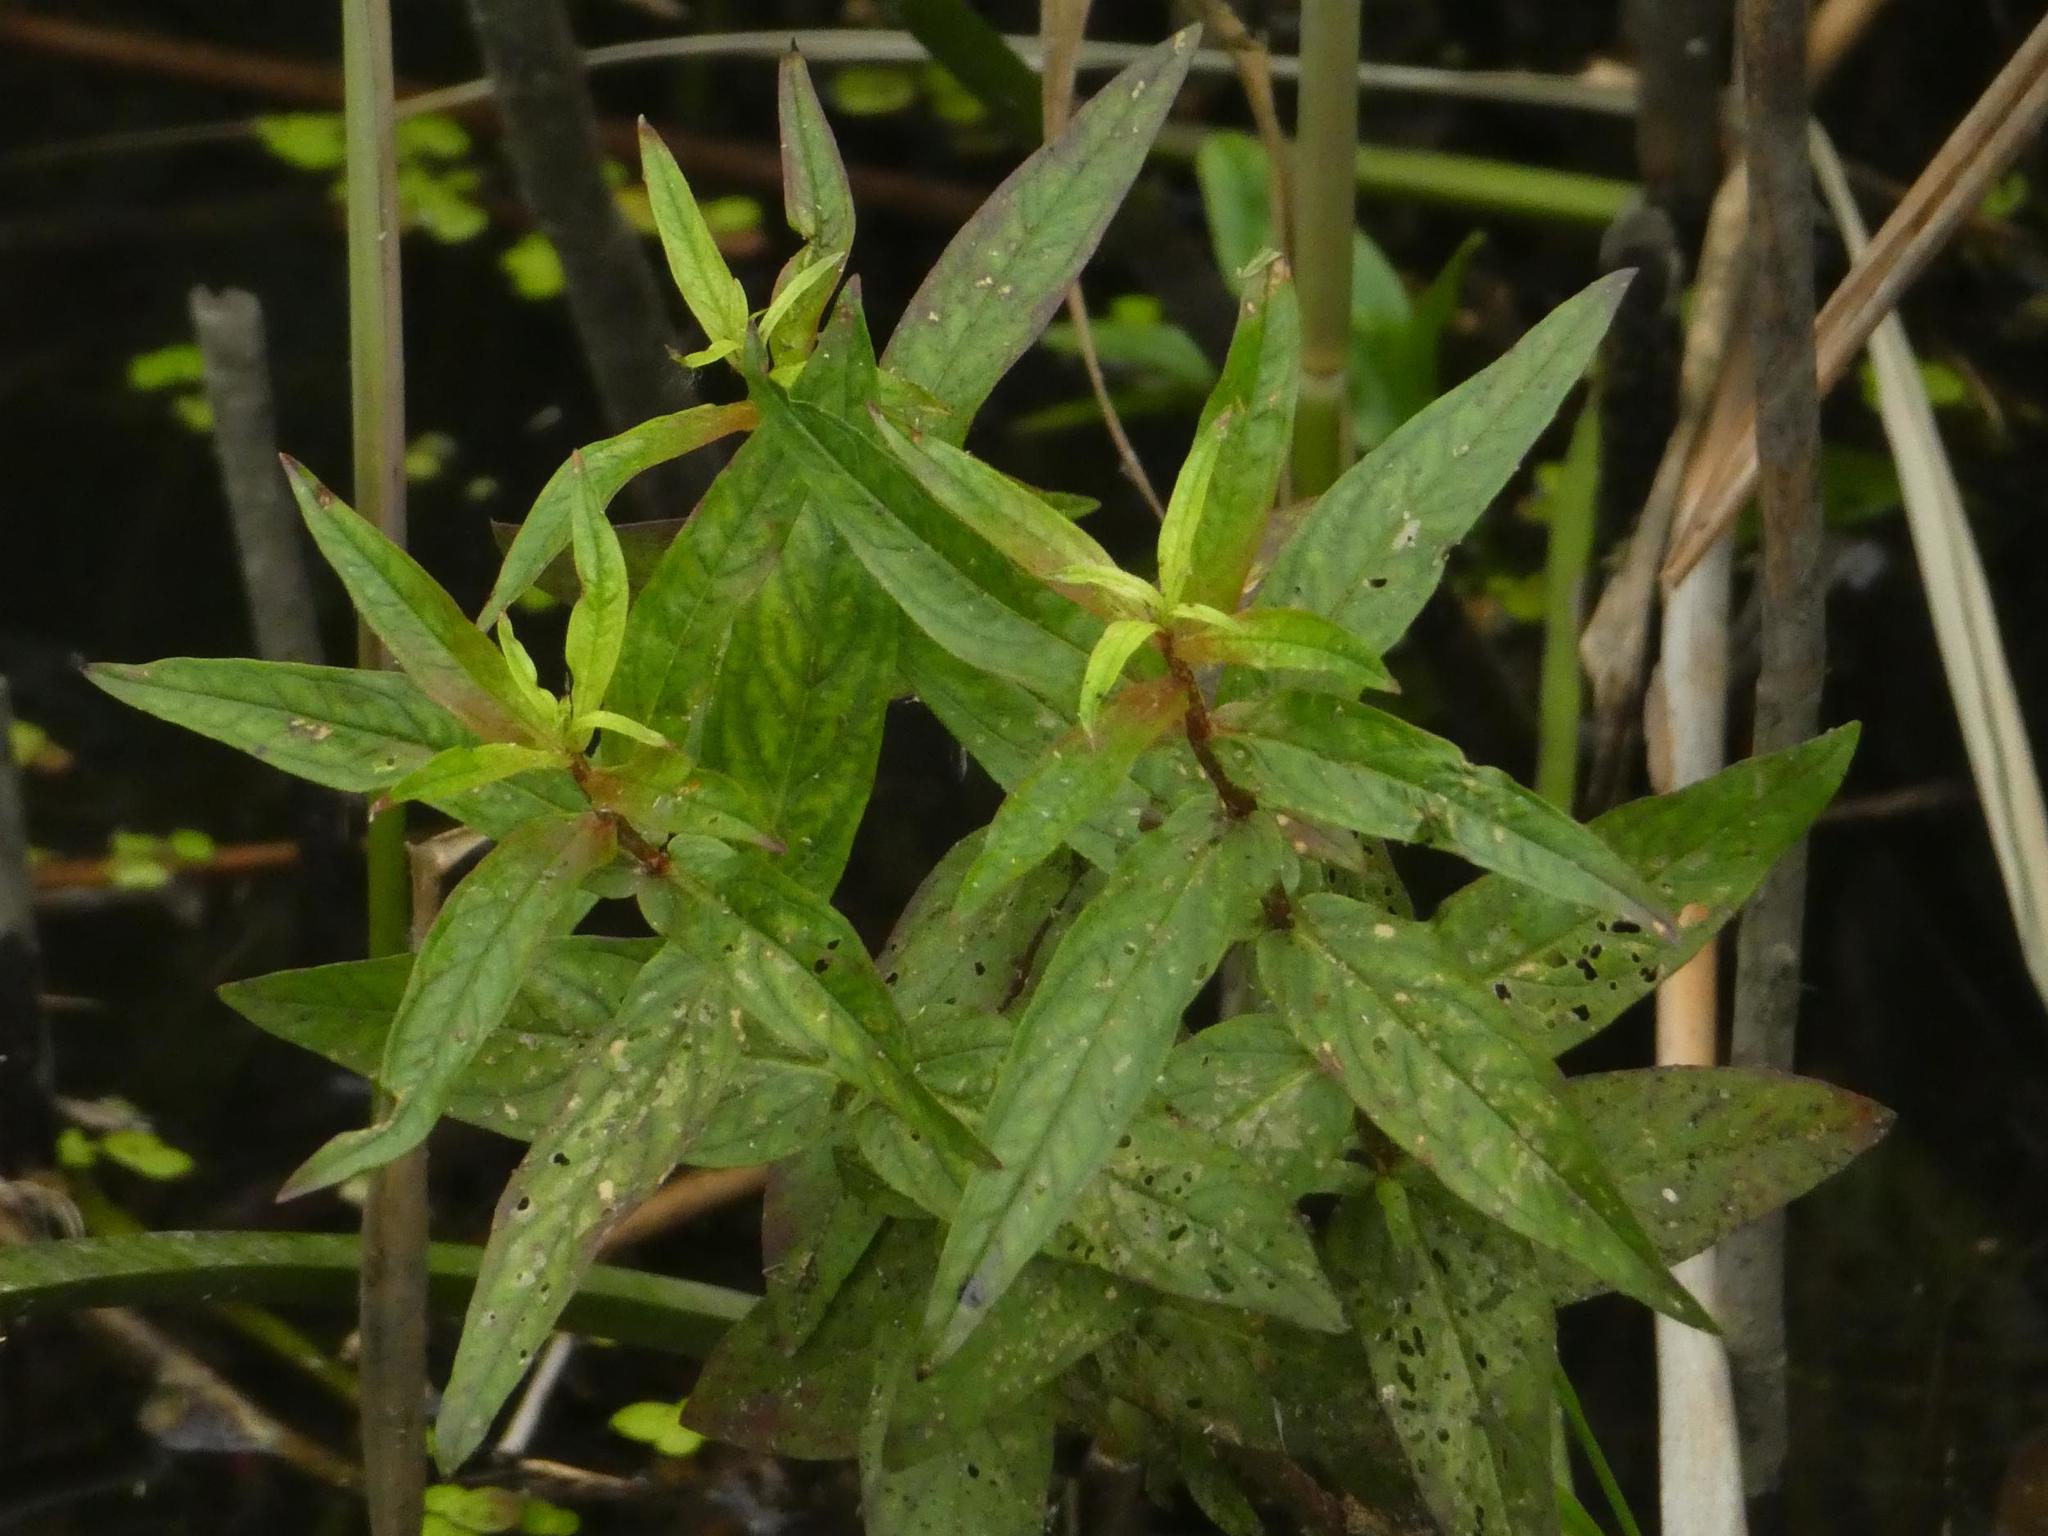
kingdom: Plantae
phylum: Tracheophyta
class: Magnoliopsida
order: Myrtales
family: Lythraceae
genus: Lythrum
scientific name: Lythrum salicaria
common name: Purple loosestrife
